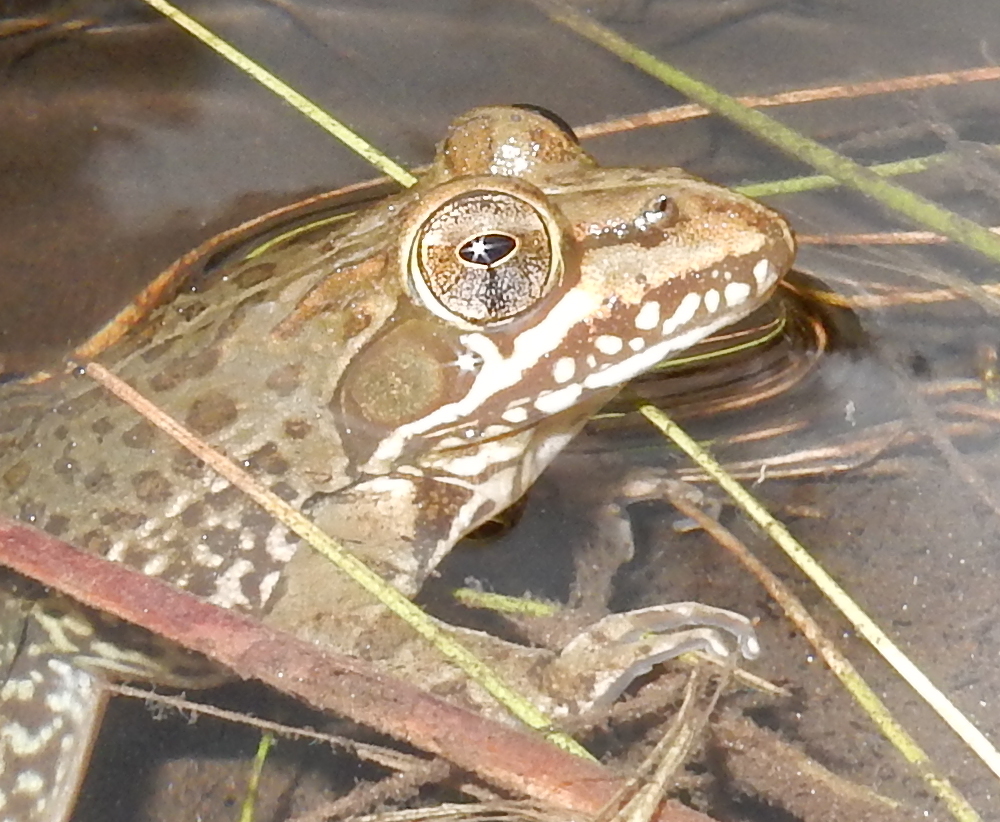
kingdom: Animalia
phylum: Chordata
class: Amphibia
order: Anura
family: Pyxicephalidae
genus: Amietia
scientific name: Amietia delalandii
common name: Delalande's river frog
